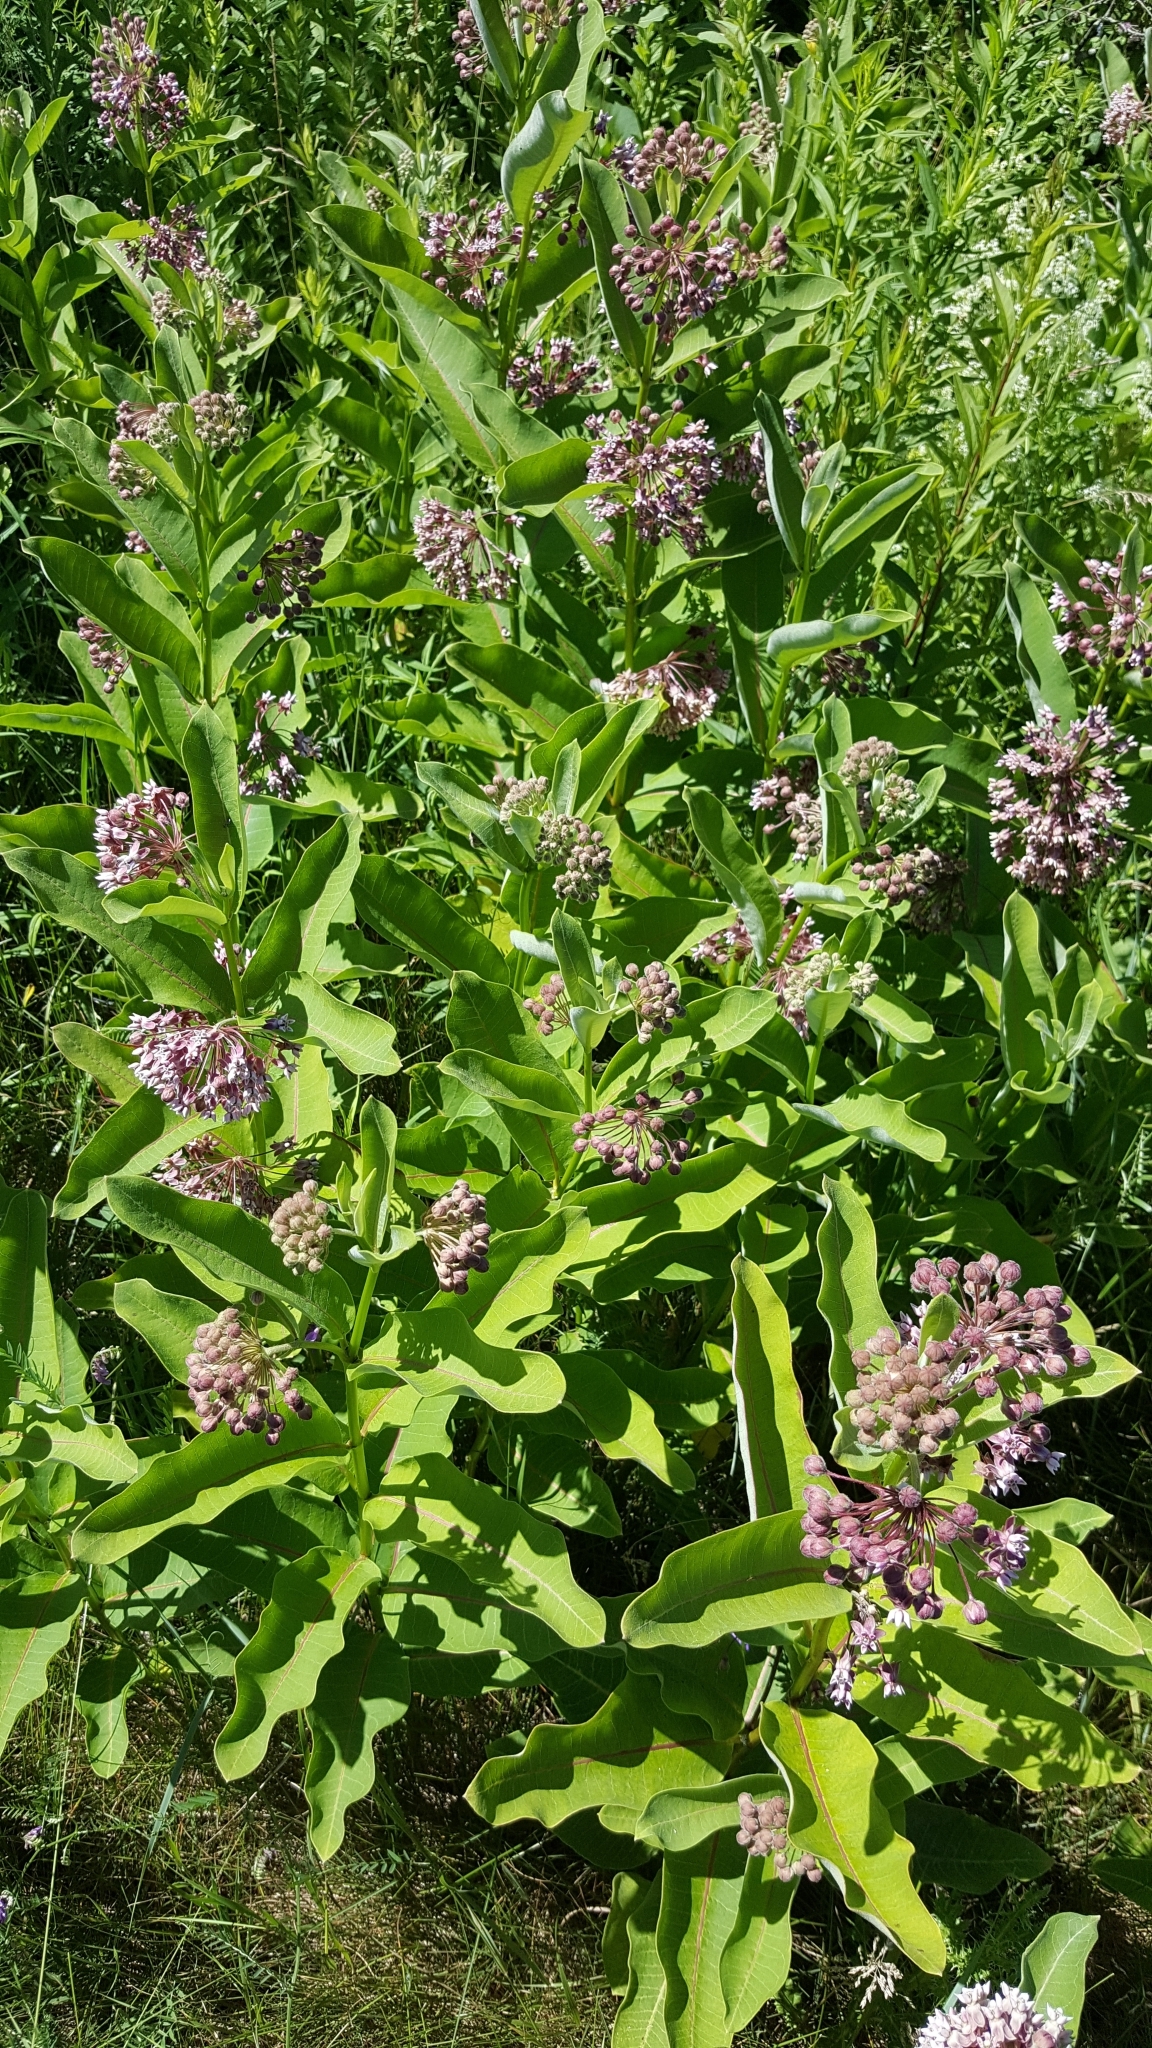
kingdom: Plantae
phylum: Tracheophyta
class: Magnoliopsida
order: Gentianales
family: Apocynaceae
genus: Asclepias
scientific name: Asclepias syriaca
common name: Common milkweed
